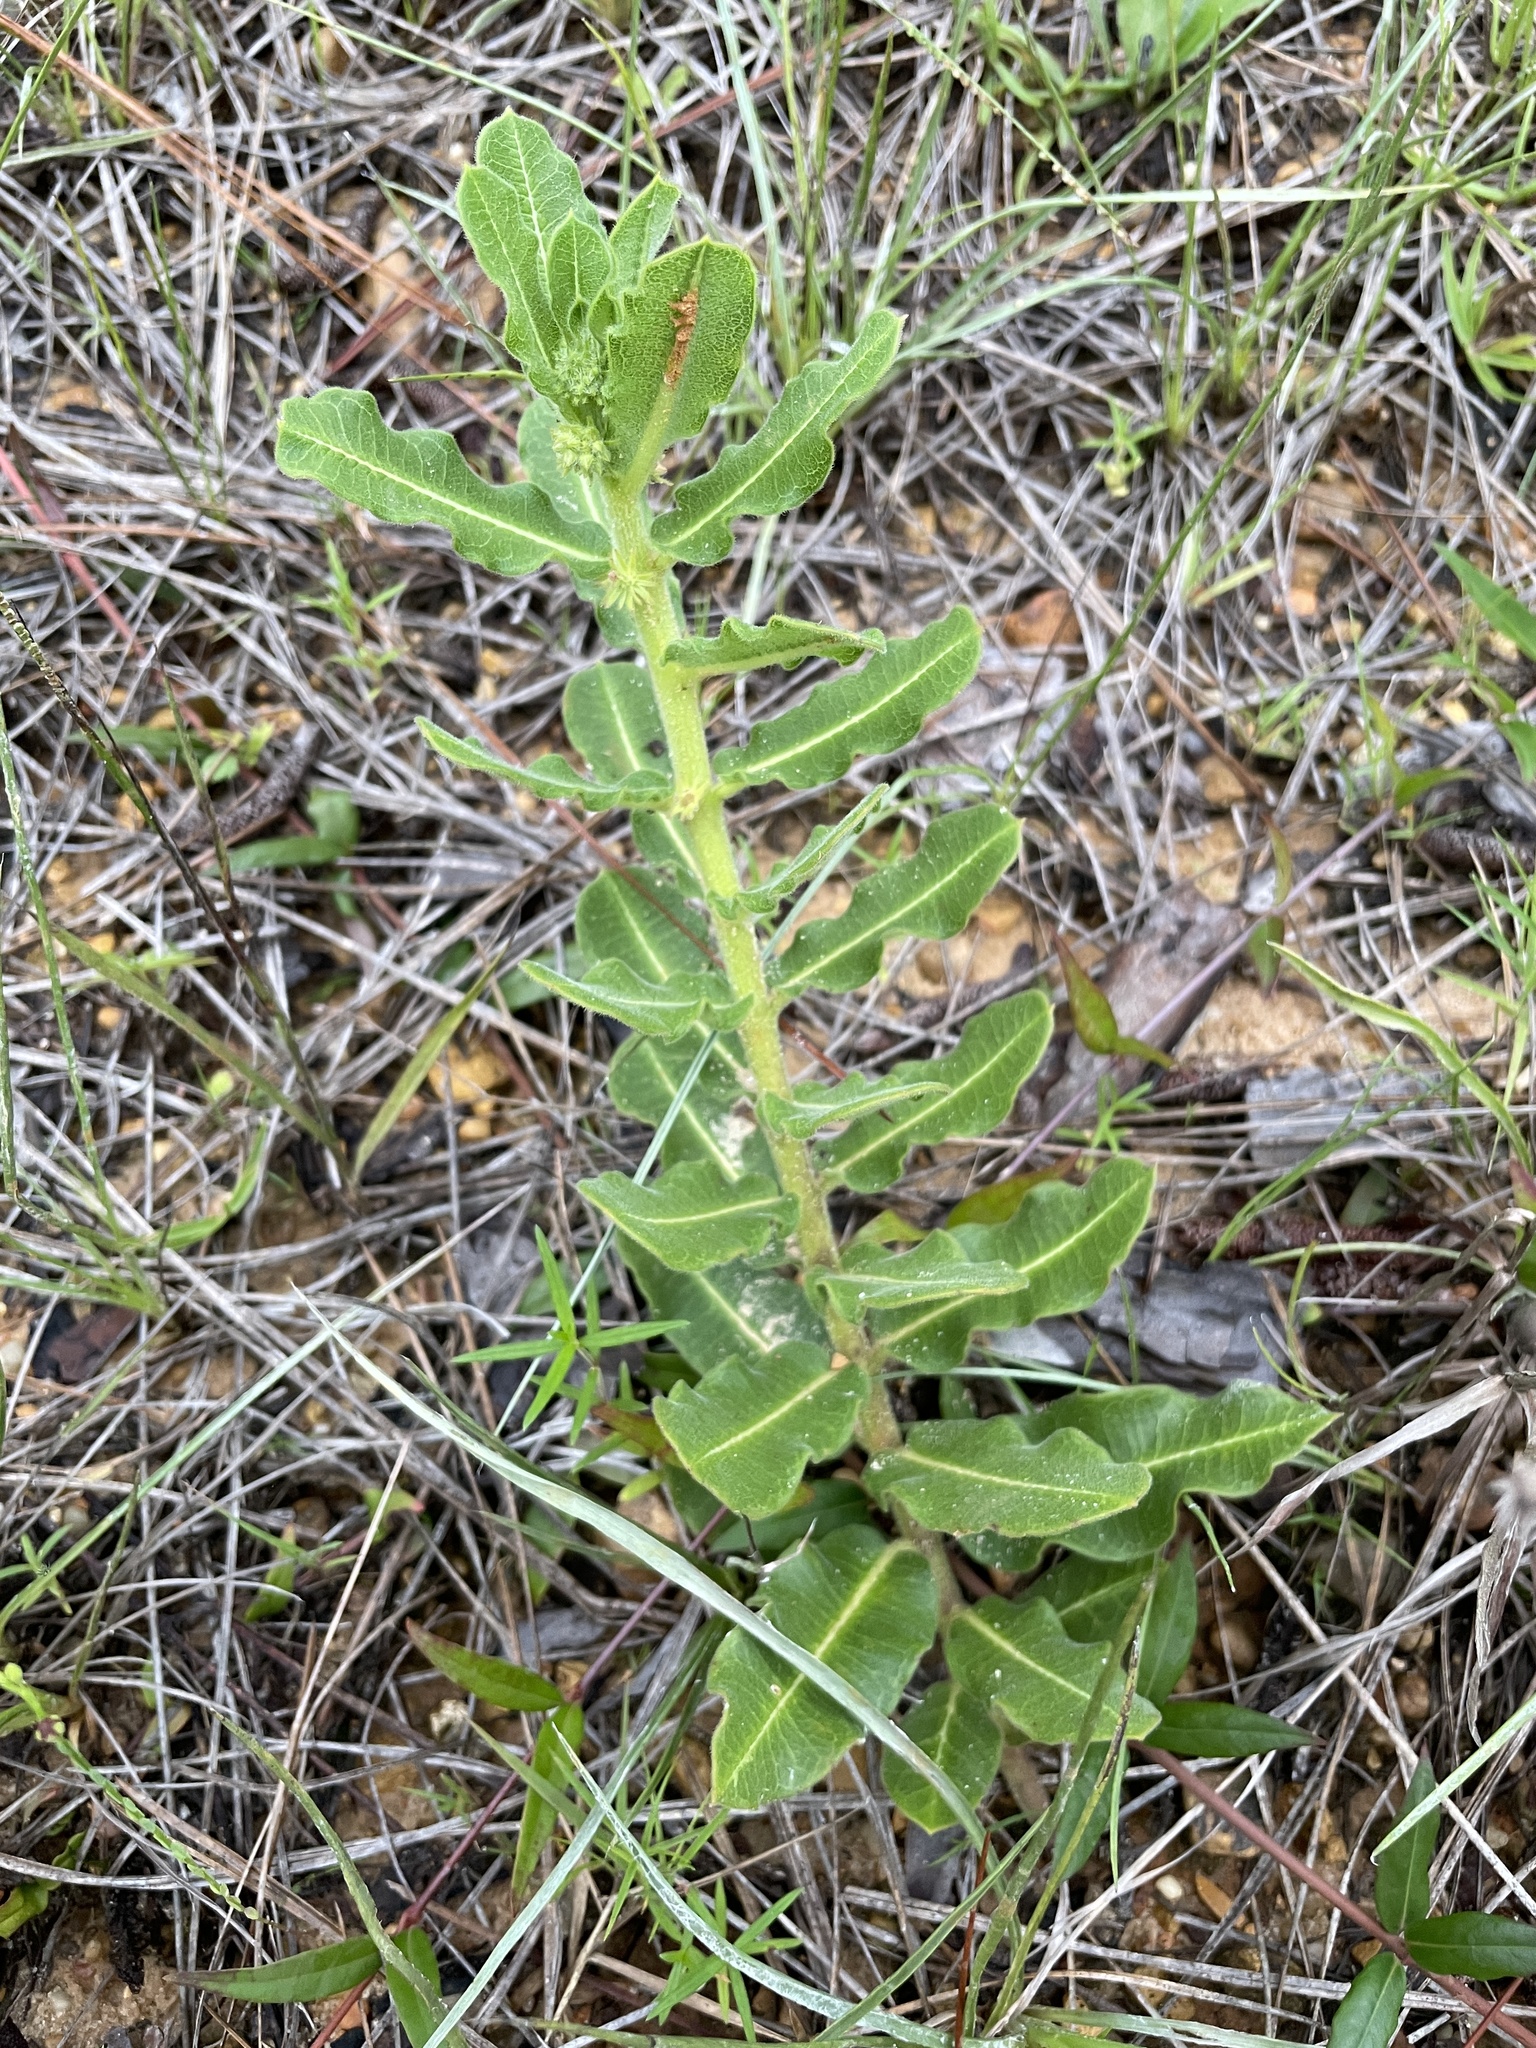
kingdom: Plantae
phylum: Tracheophyta
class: Magnoliopsida
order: Gentianales
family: Apocynaceae
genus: Asclepias
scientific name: Asclepias obovata
